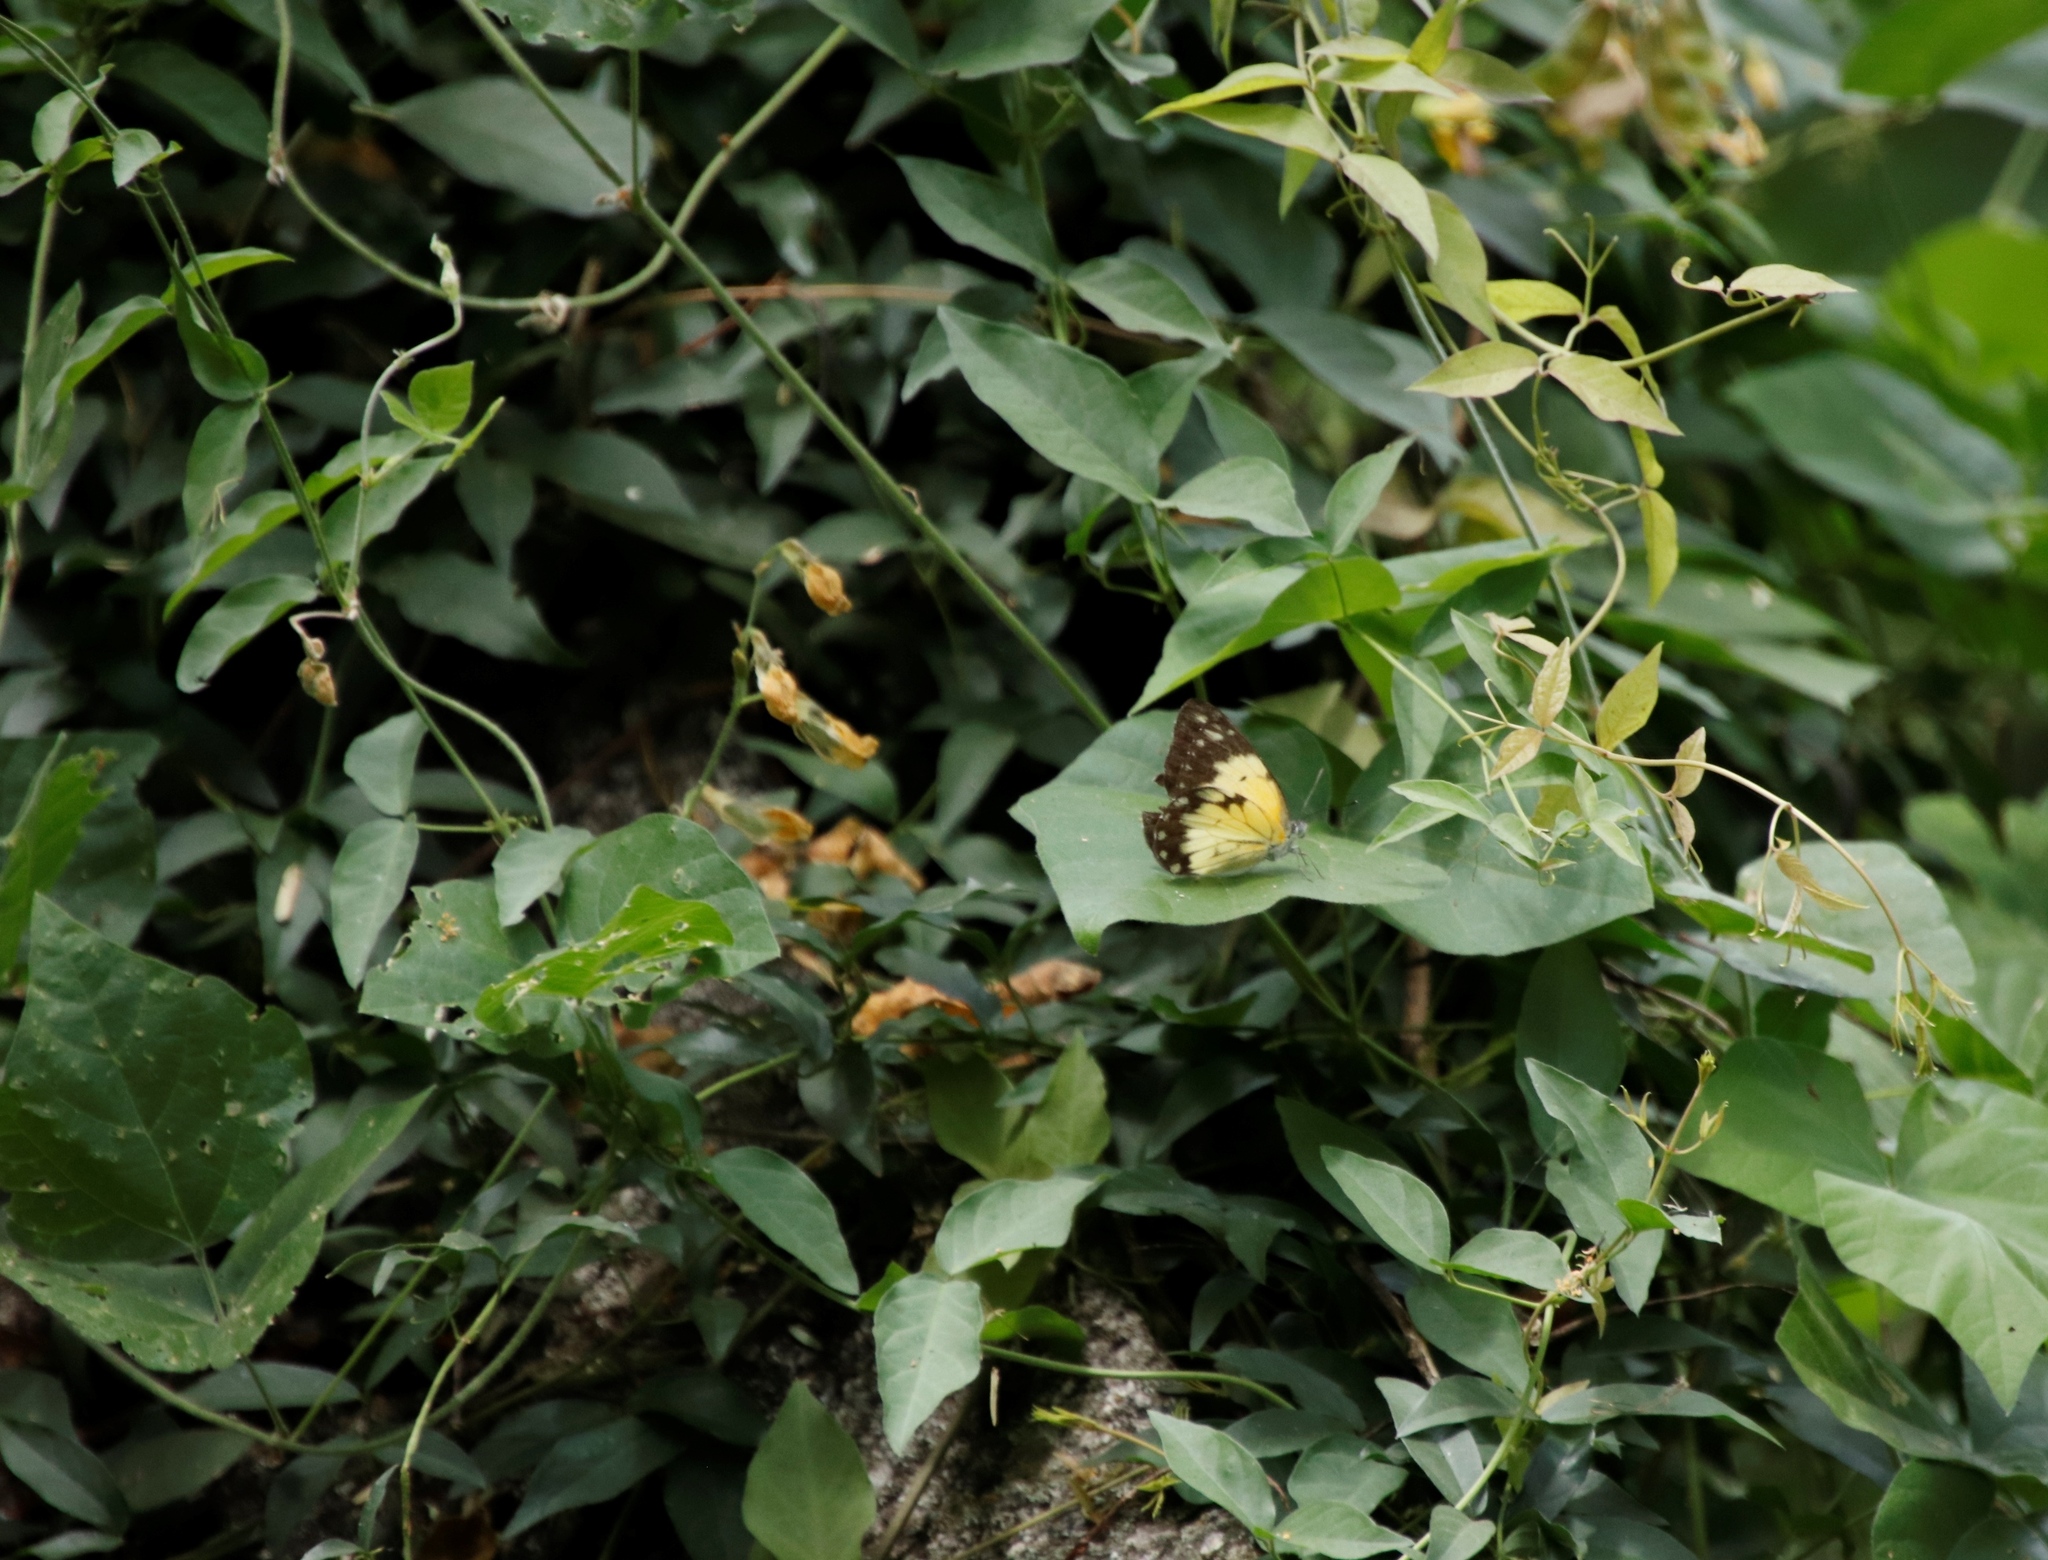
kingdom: Animalia
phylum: Arthropoda
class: Insecta
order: Lepidoptera
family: Pieridae
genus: Belenois
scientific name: Belenois creona
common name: African caper white
